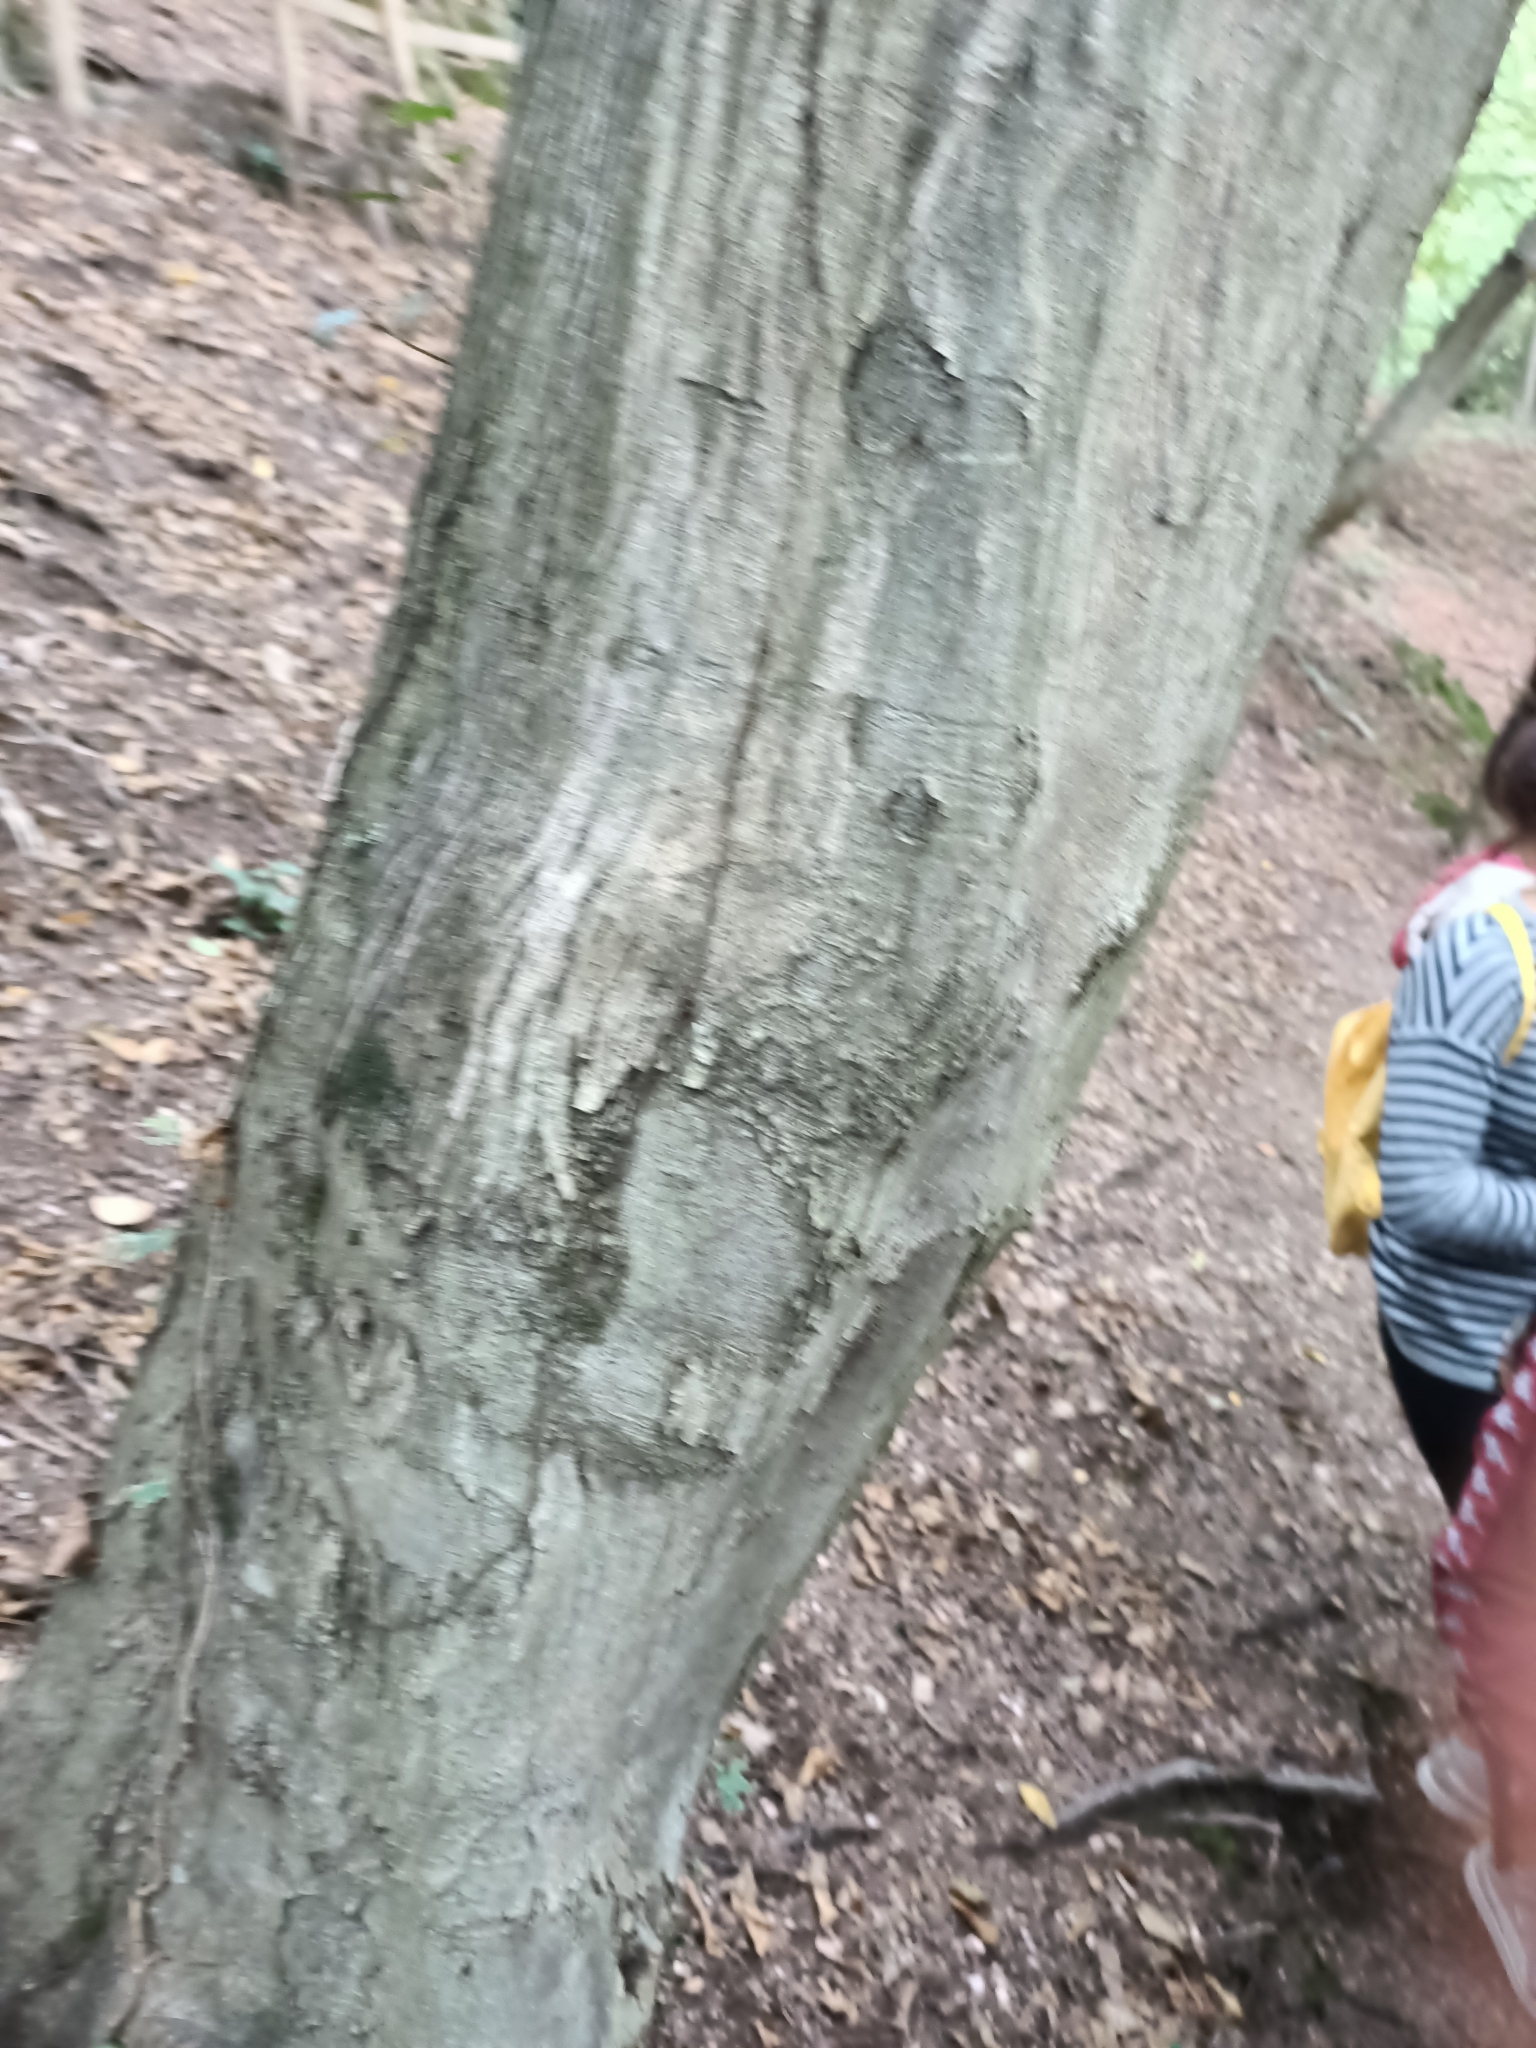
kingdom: Plantae
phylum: Tracheophyta
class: Magnoliopsida
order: Fagales
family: Betulaceae
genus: Carpinus
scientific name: Carpinus betulus
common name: Hornbeam
